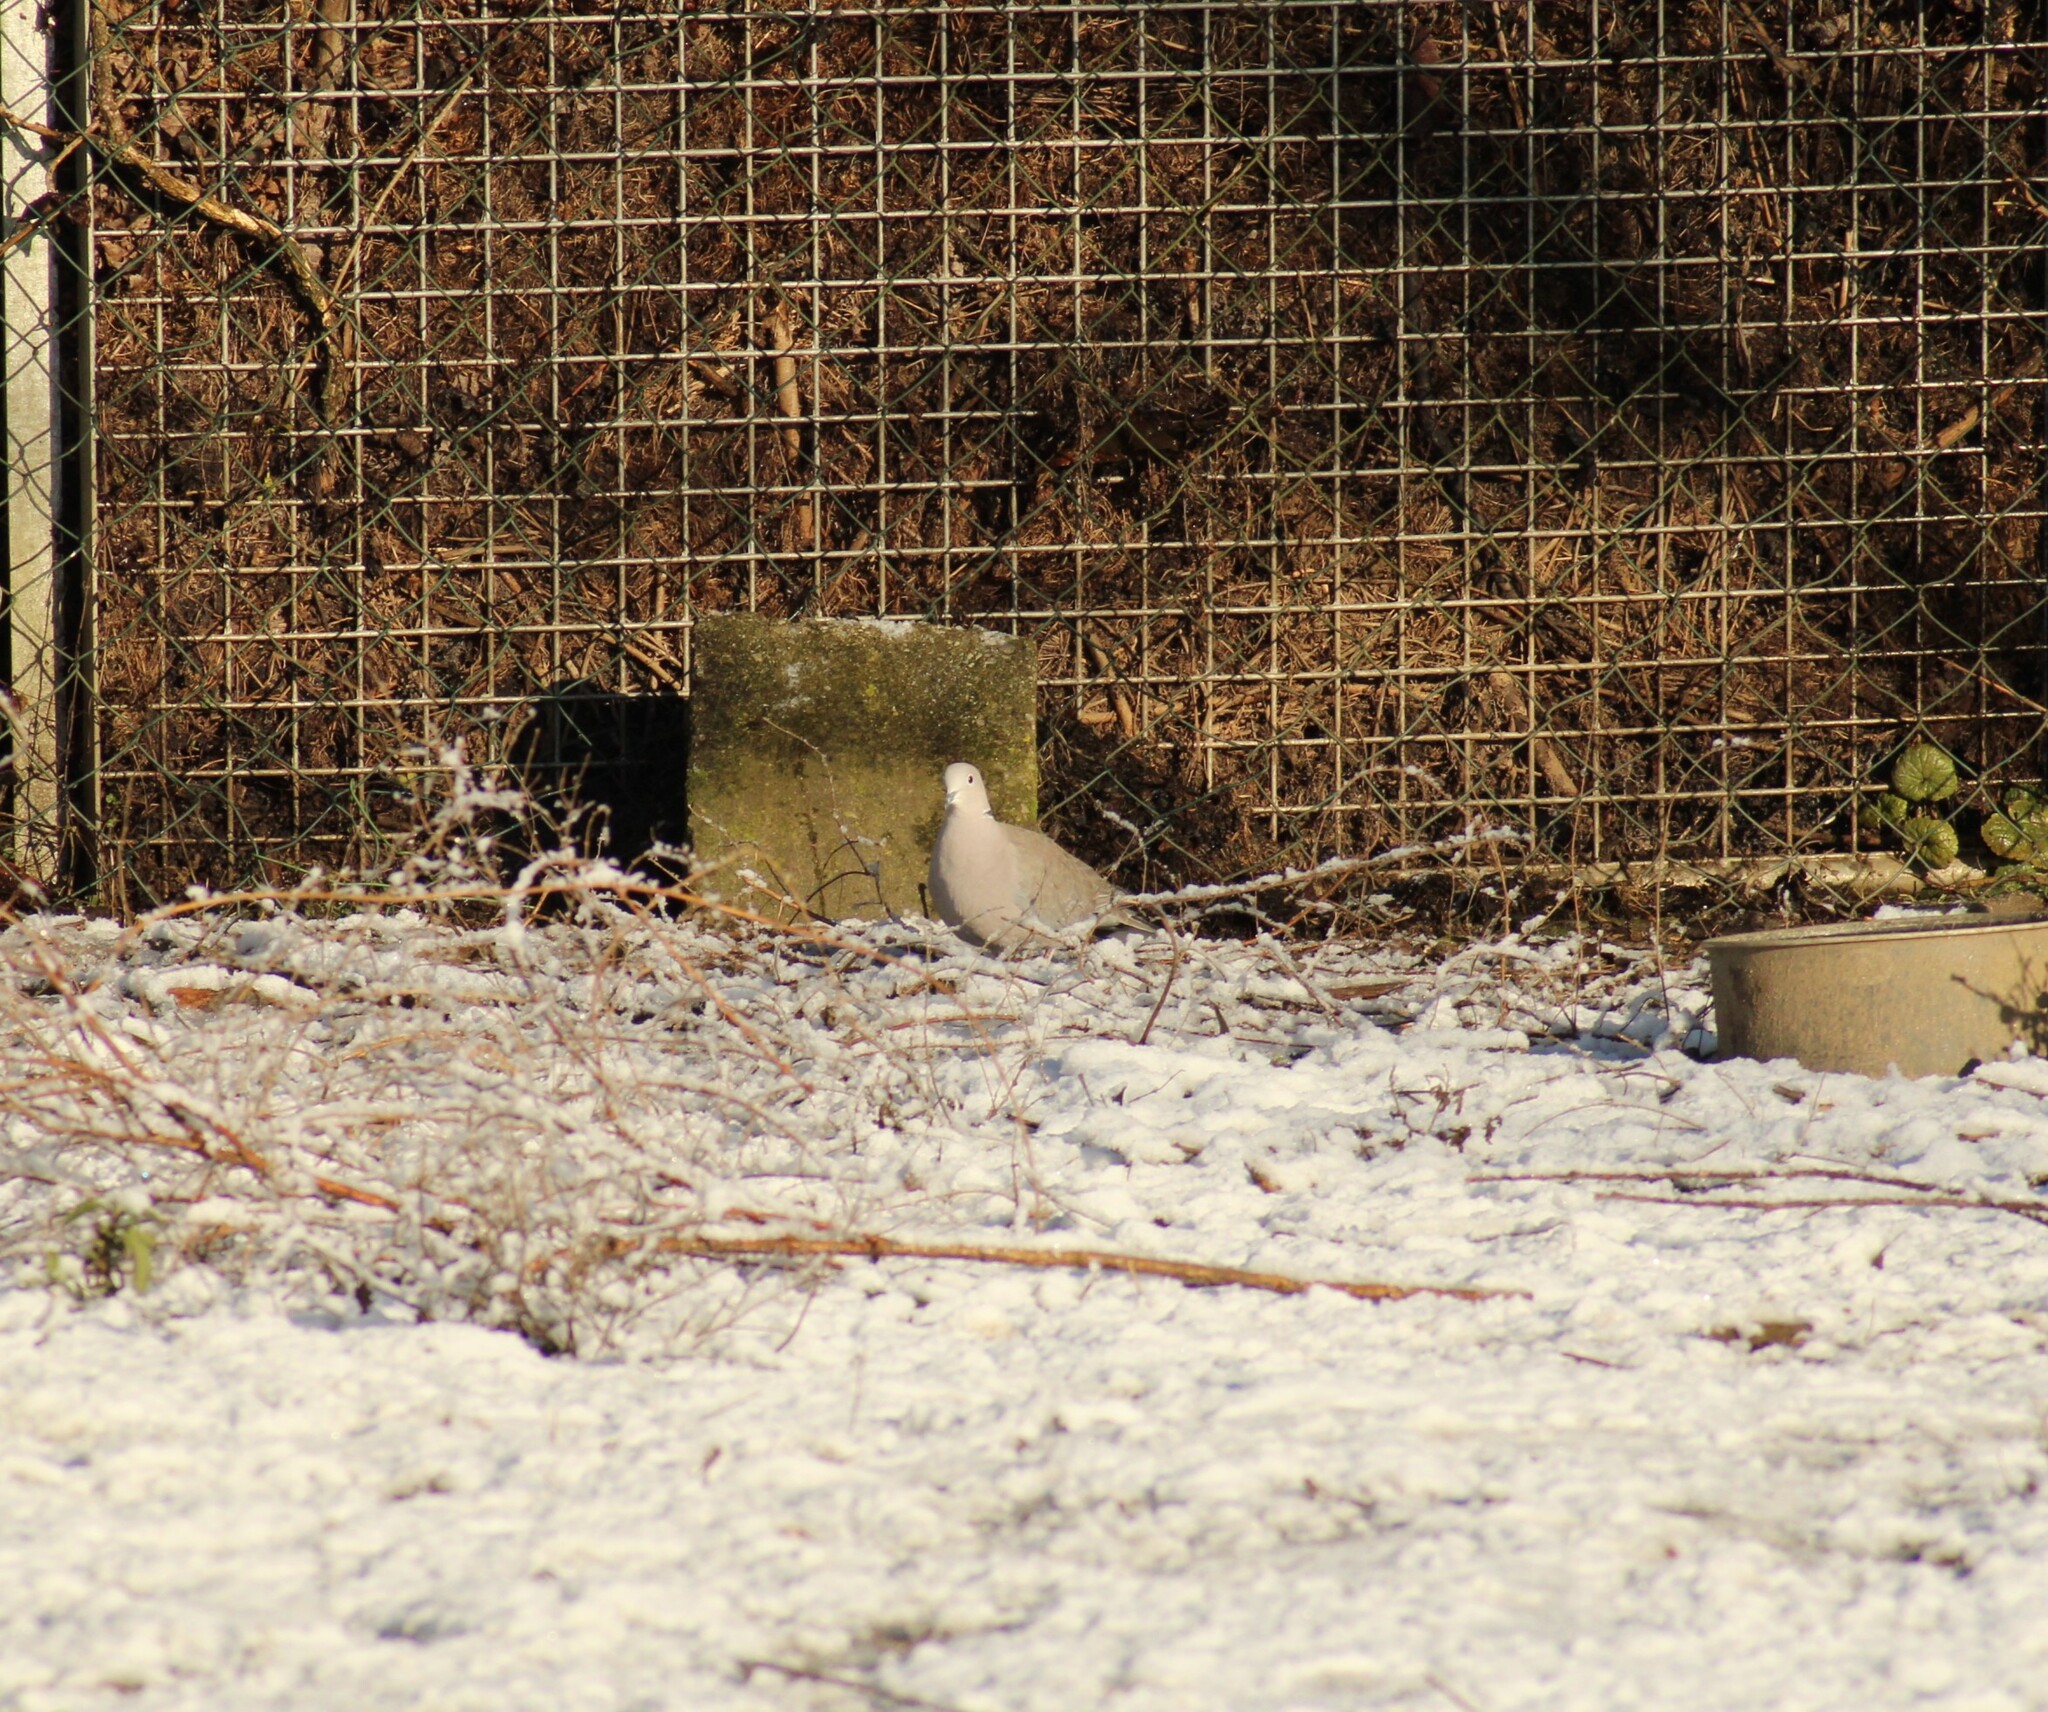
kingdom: Animalia
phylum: Chordata
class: Aves
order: Columbiformes
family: Columbidae
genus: Streptopelia
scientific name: Streptopelia decaocto
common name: Eurasian collared dove
